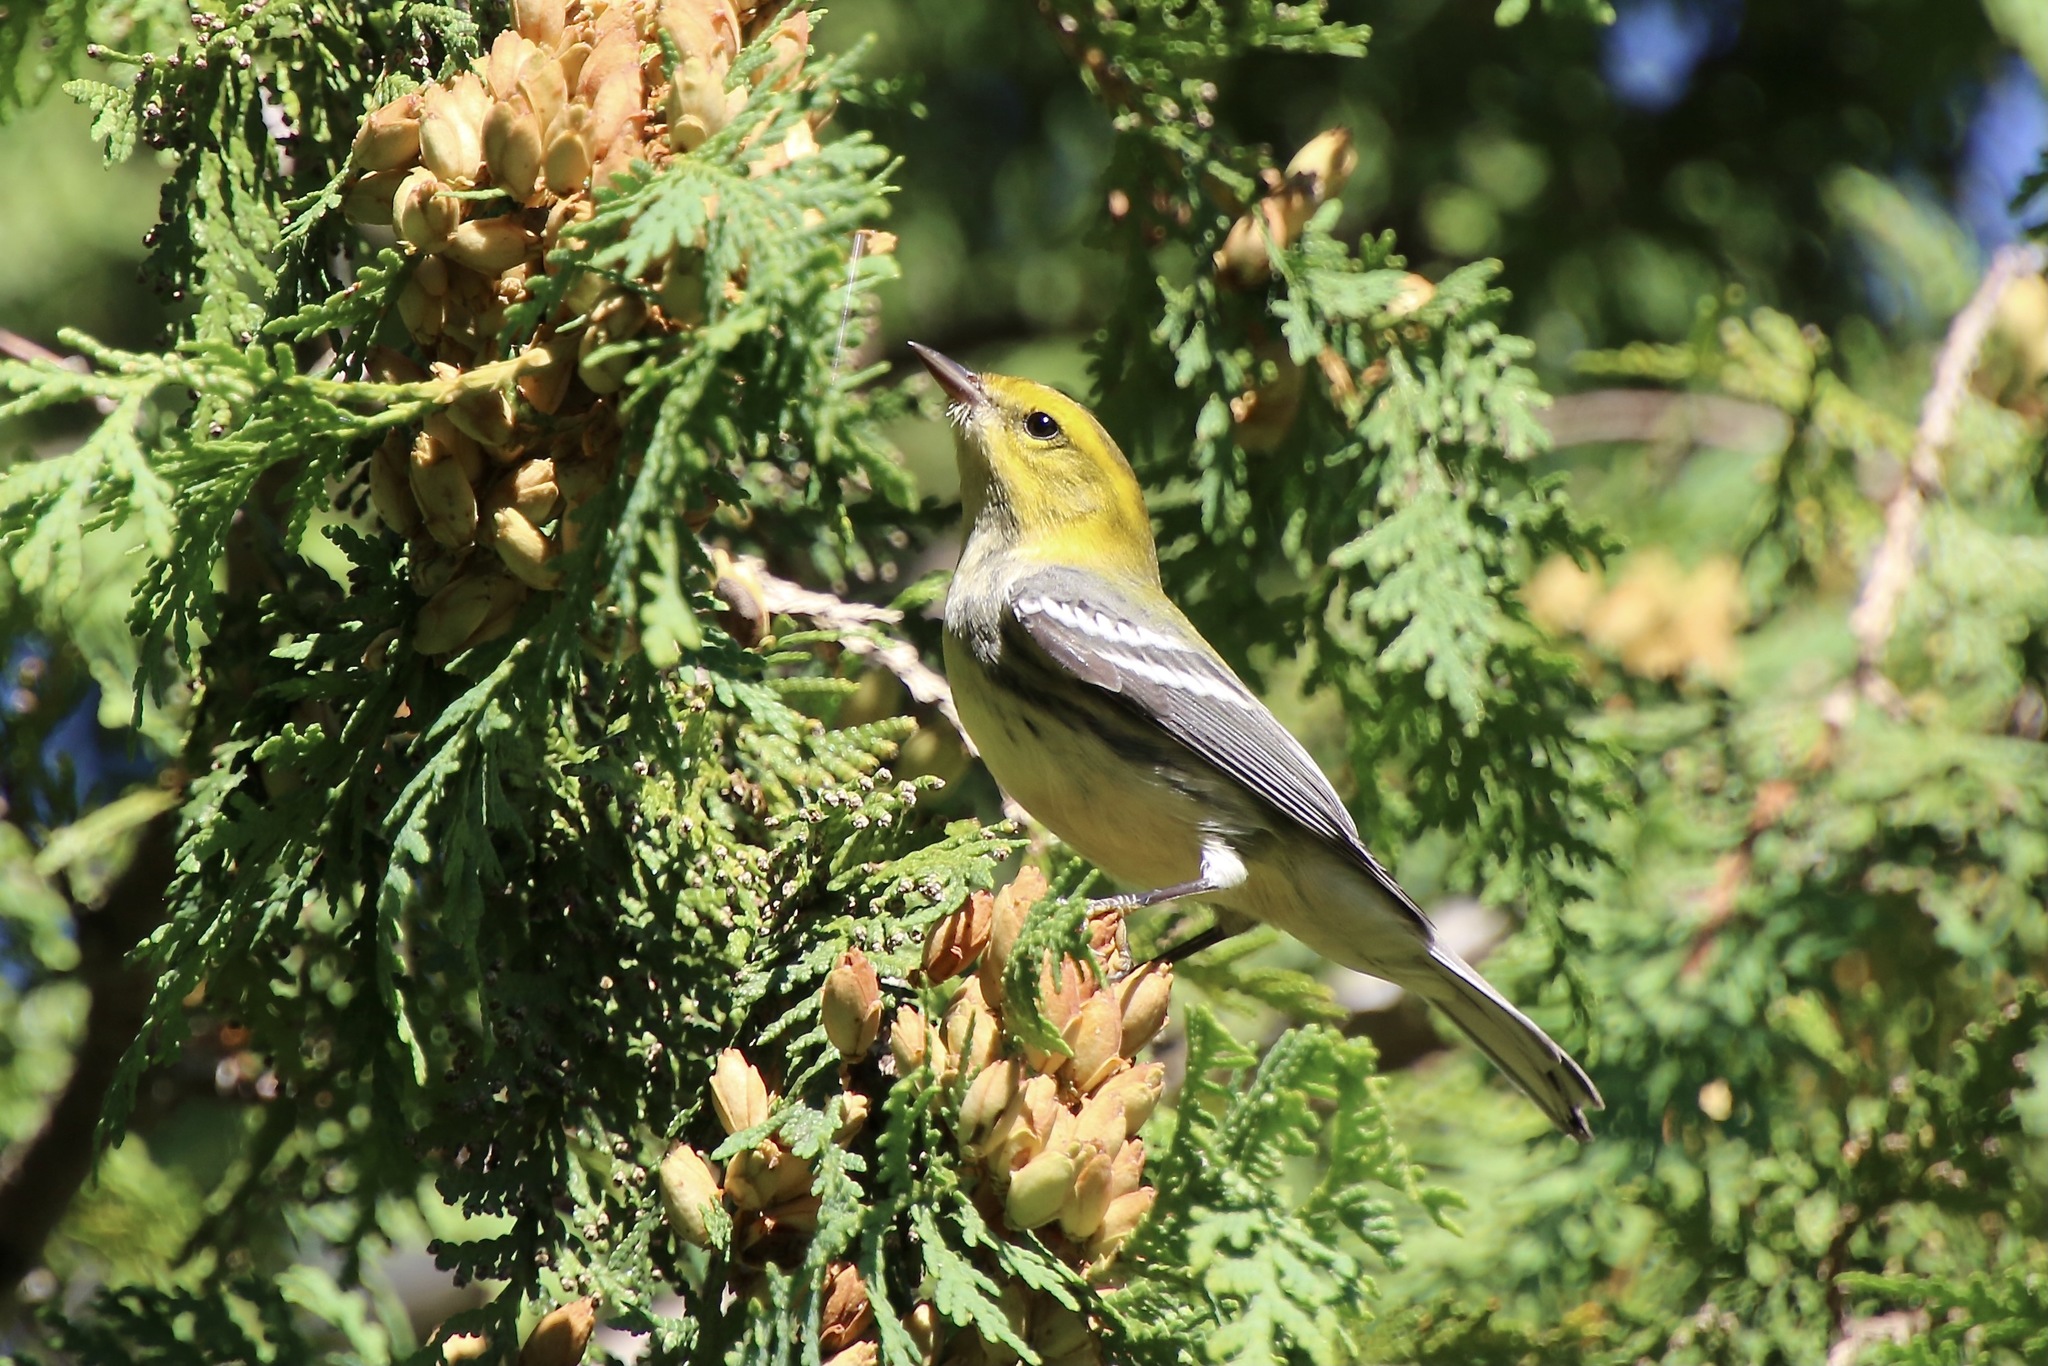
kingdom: Animalia
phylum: Chordata
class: Aves
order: Passeriformes
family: Parulidae
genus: Setophaga
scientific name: Setophaga virens
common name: Black-throated green warbler
